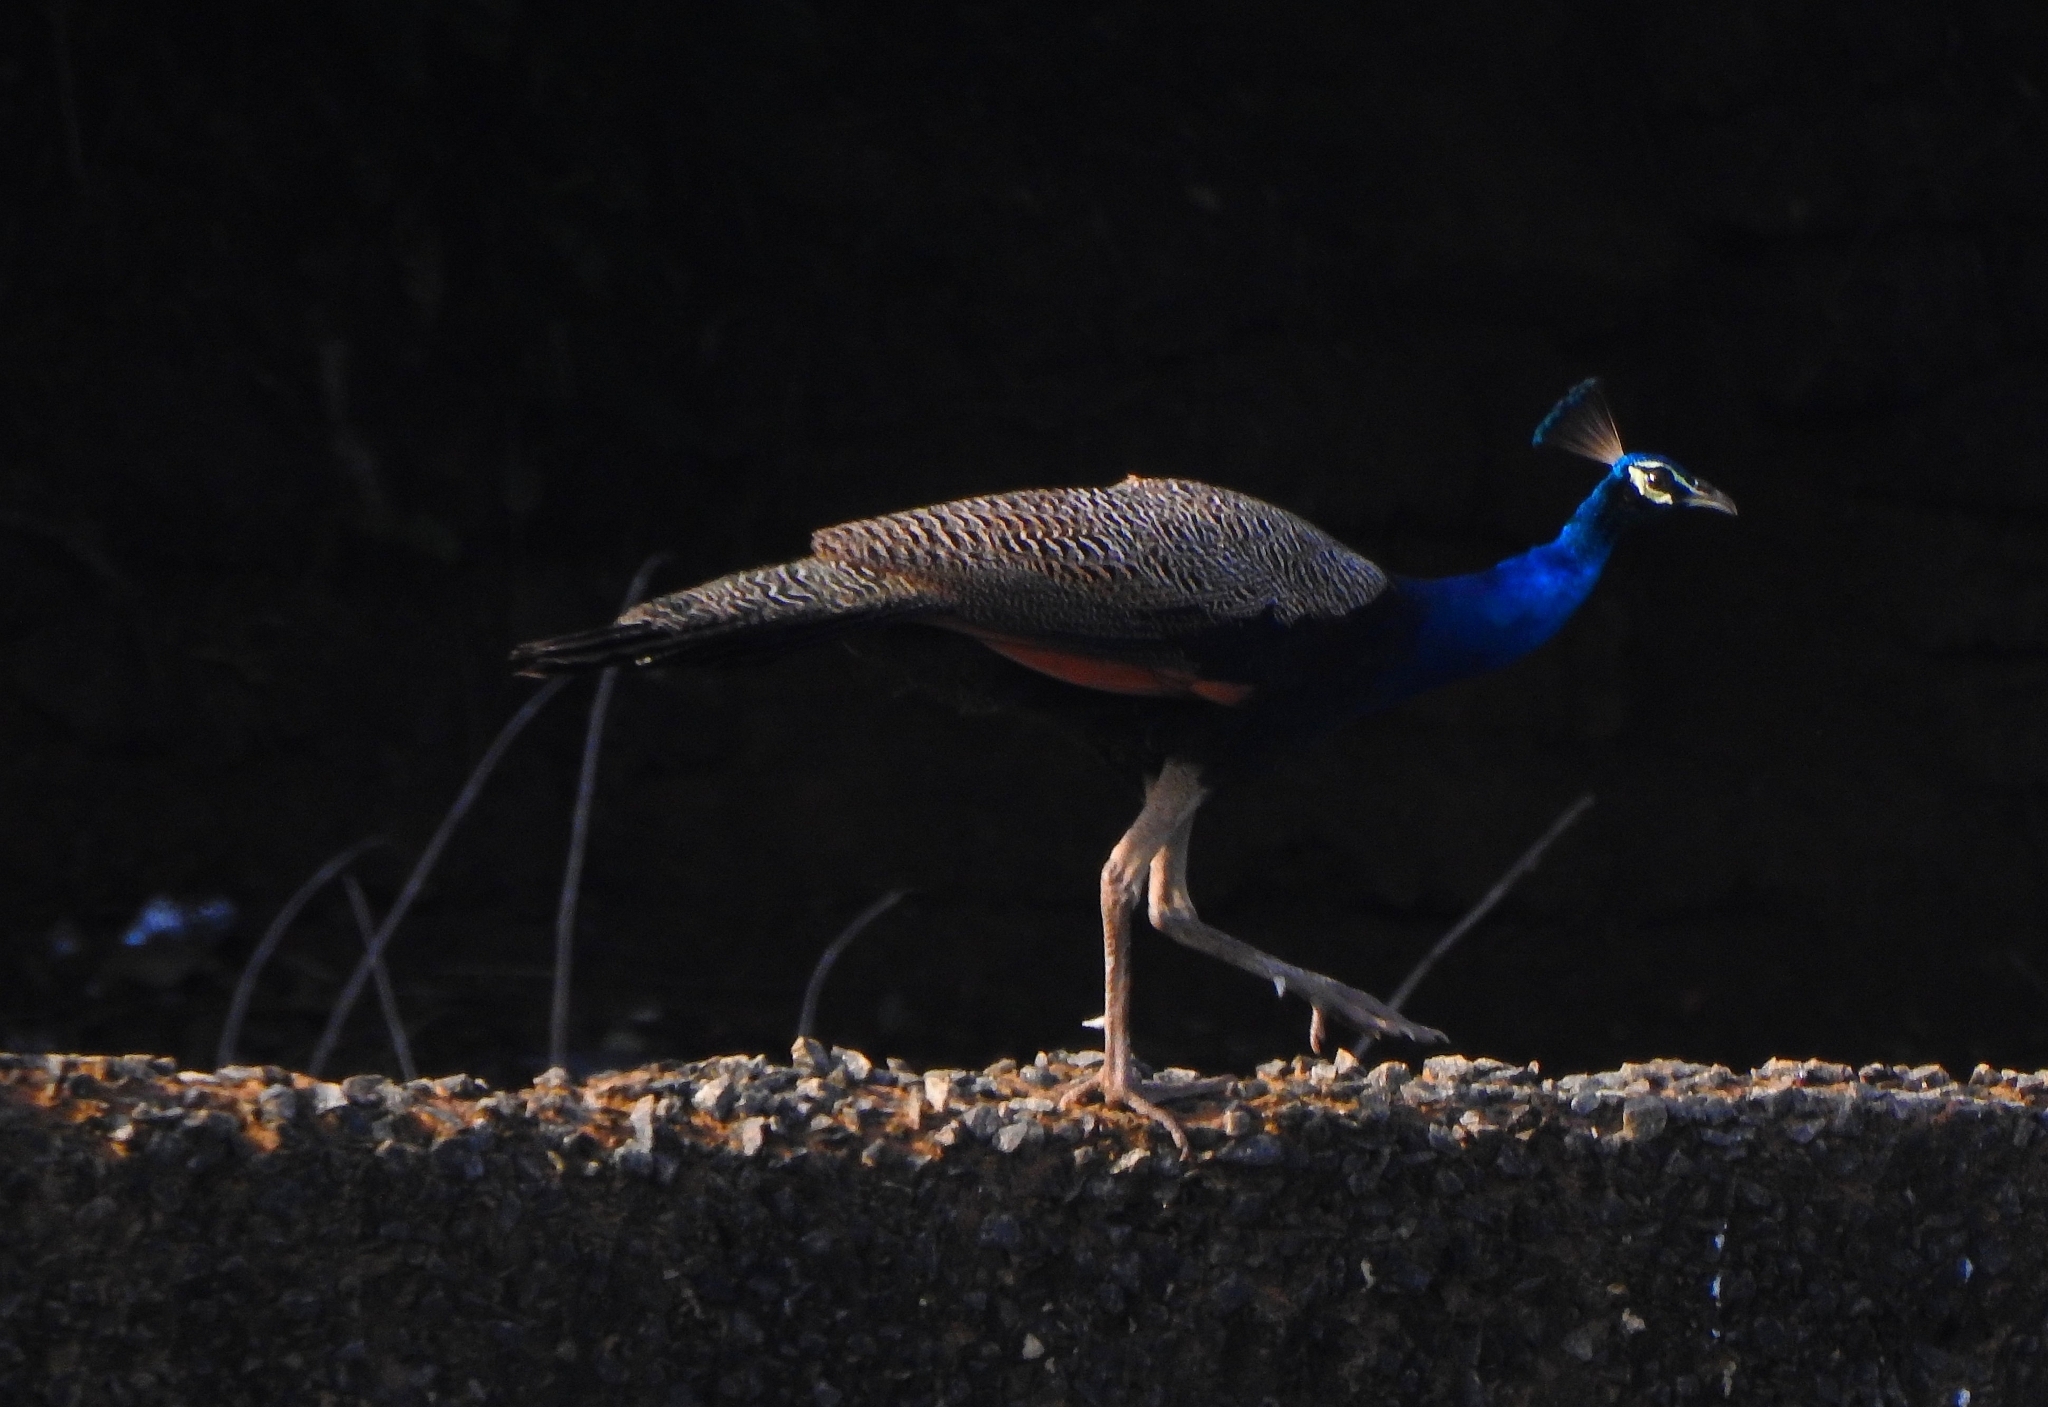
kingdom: Animalia
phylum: Chordata
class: Aves
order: Galliformes
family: Phasianidae
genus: Pavo
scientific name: Pavo cristatus
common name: Indian peafowl
